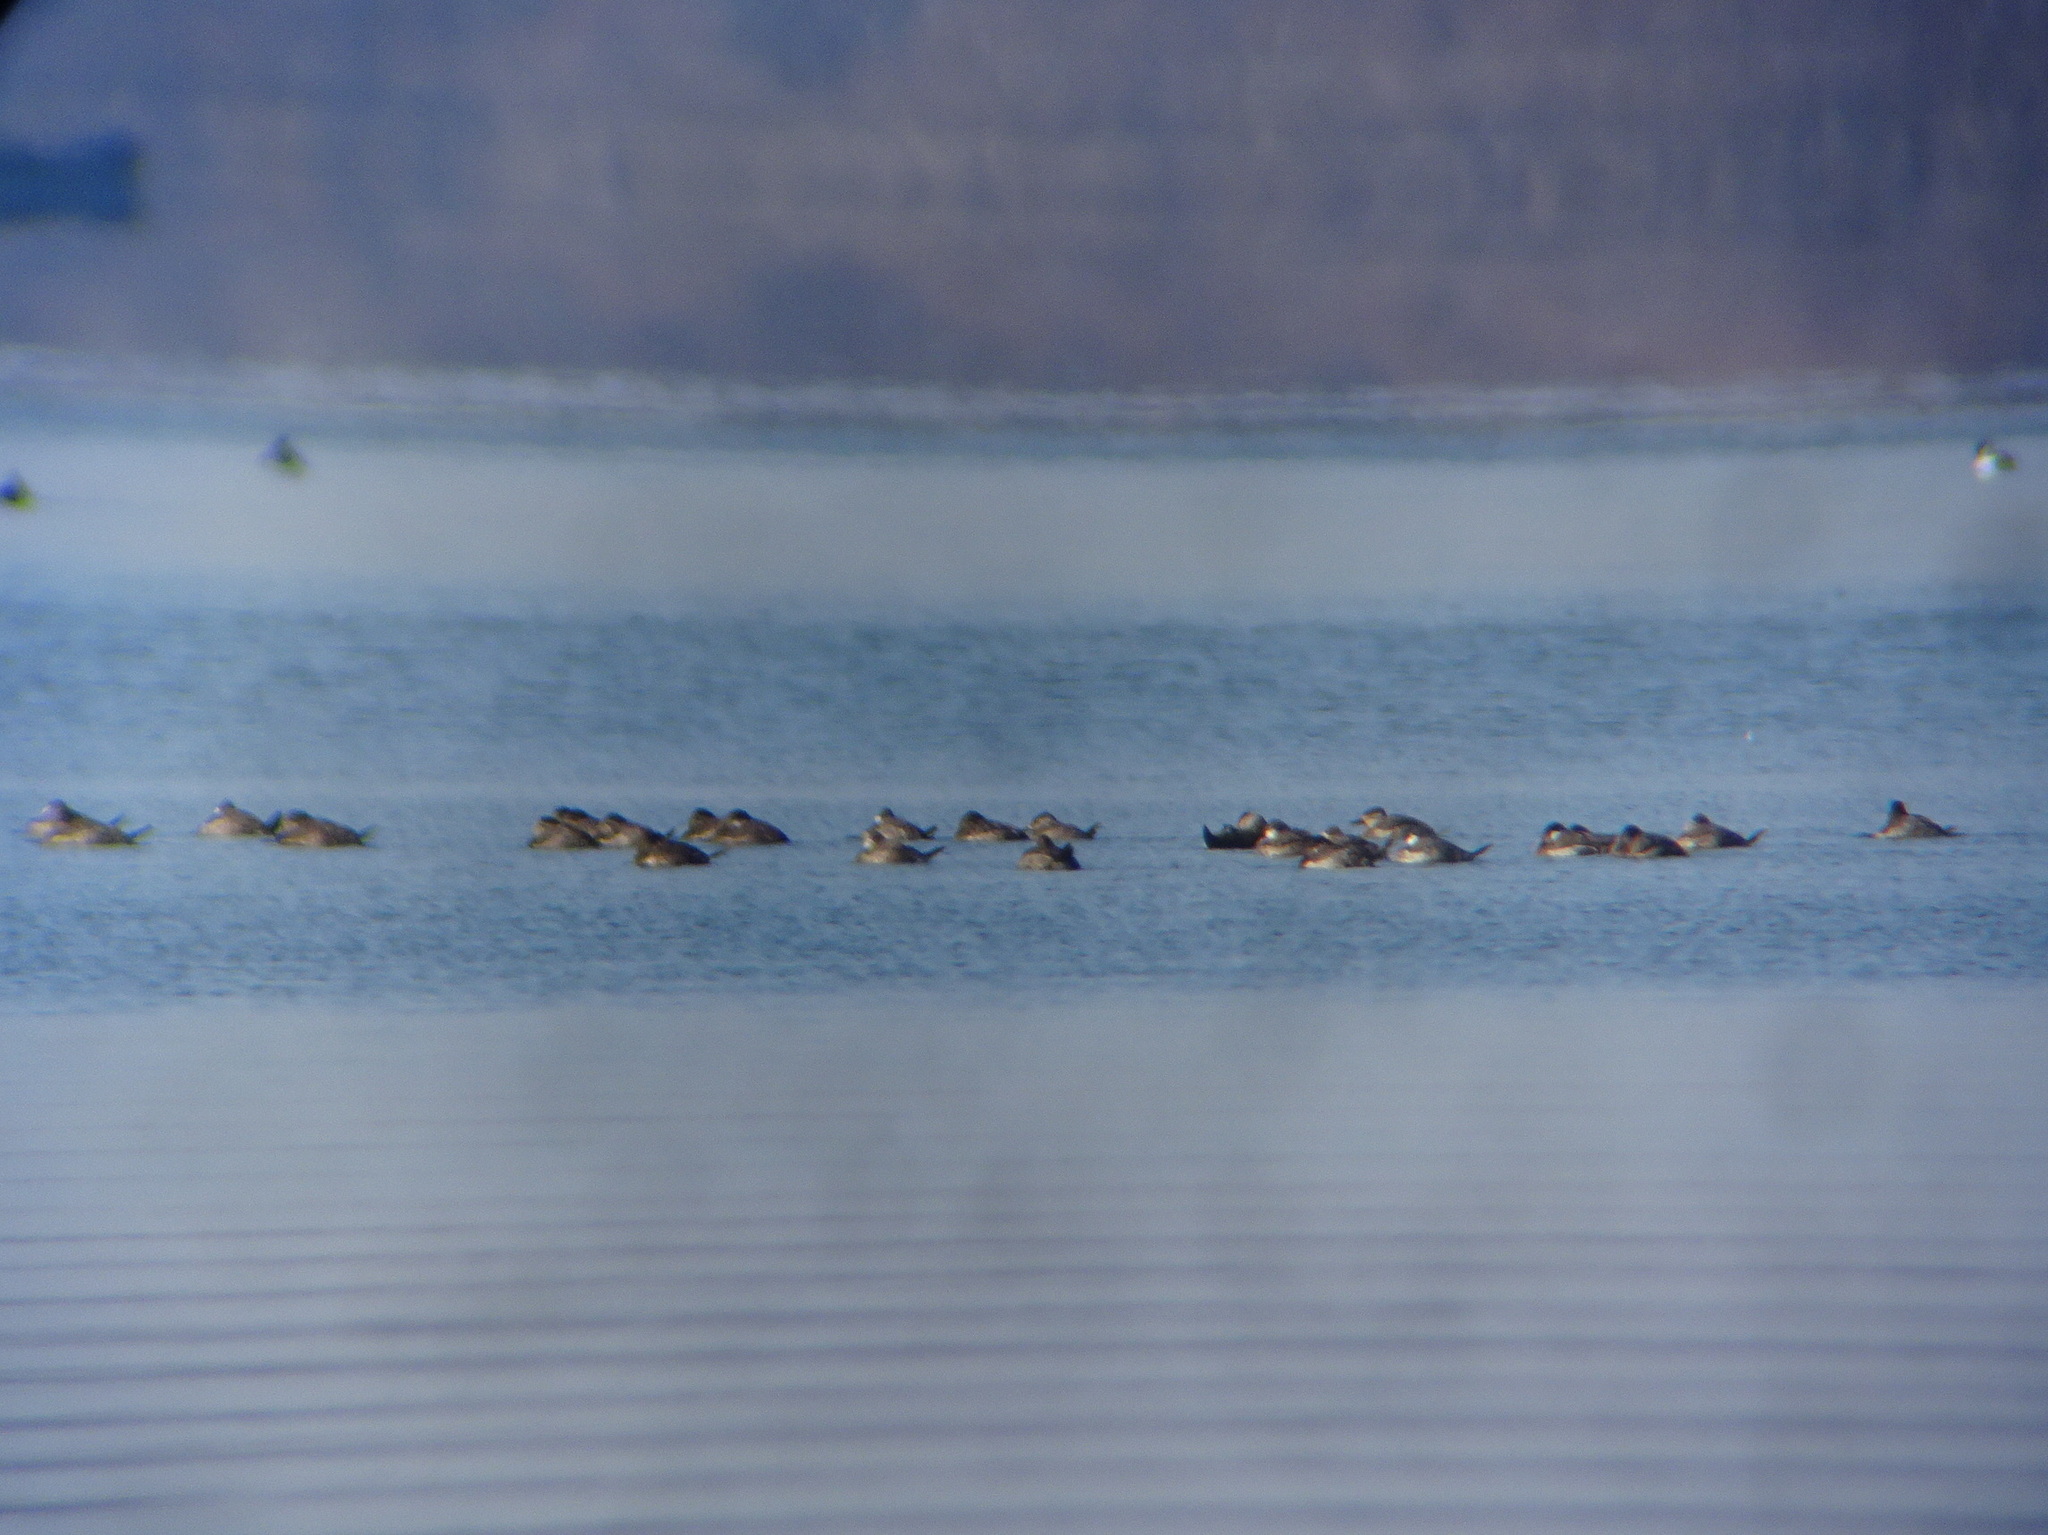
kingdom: Animalia
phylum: Chordata
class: Aves
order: Anseriformes
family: Anatidae
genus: Oxyura
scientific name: Oxyura jamaicensis
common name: Ruddy duck
